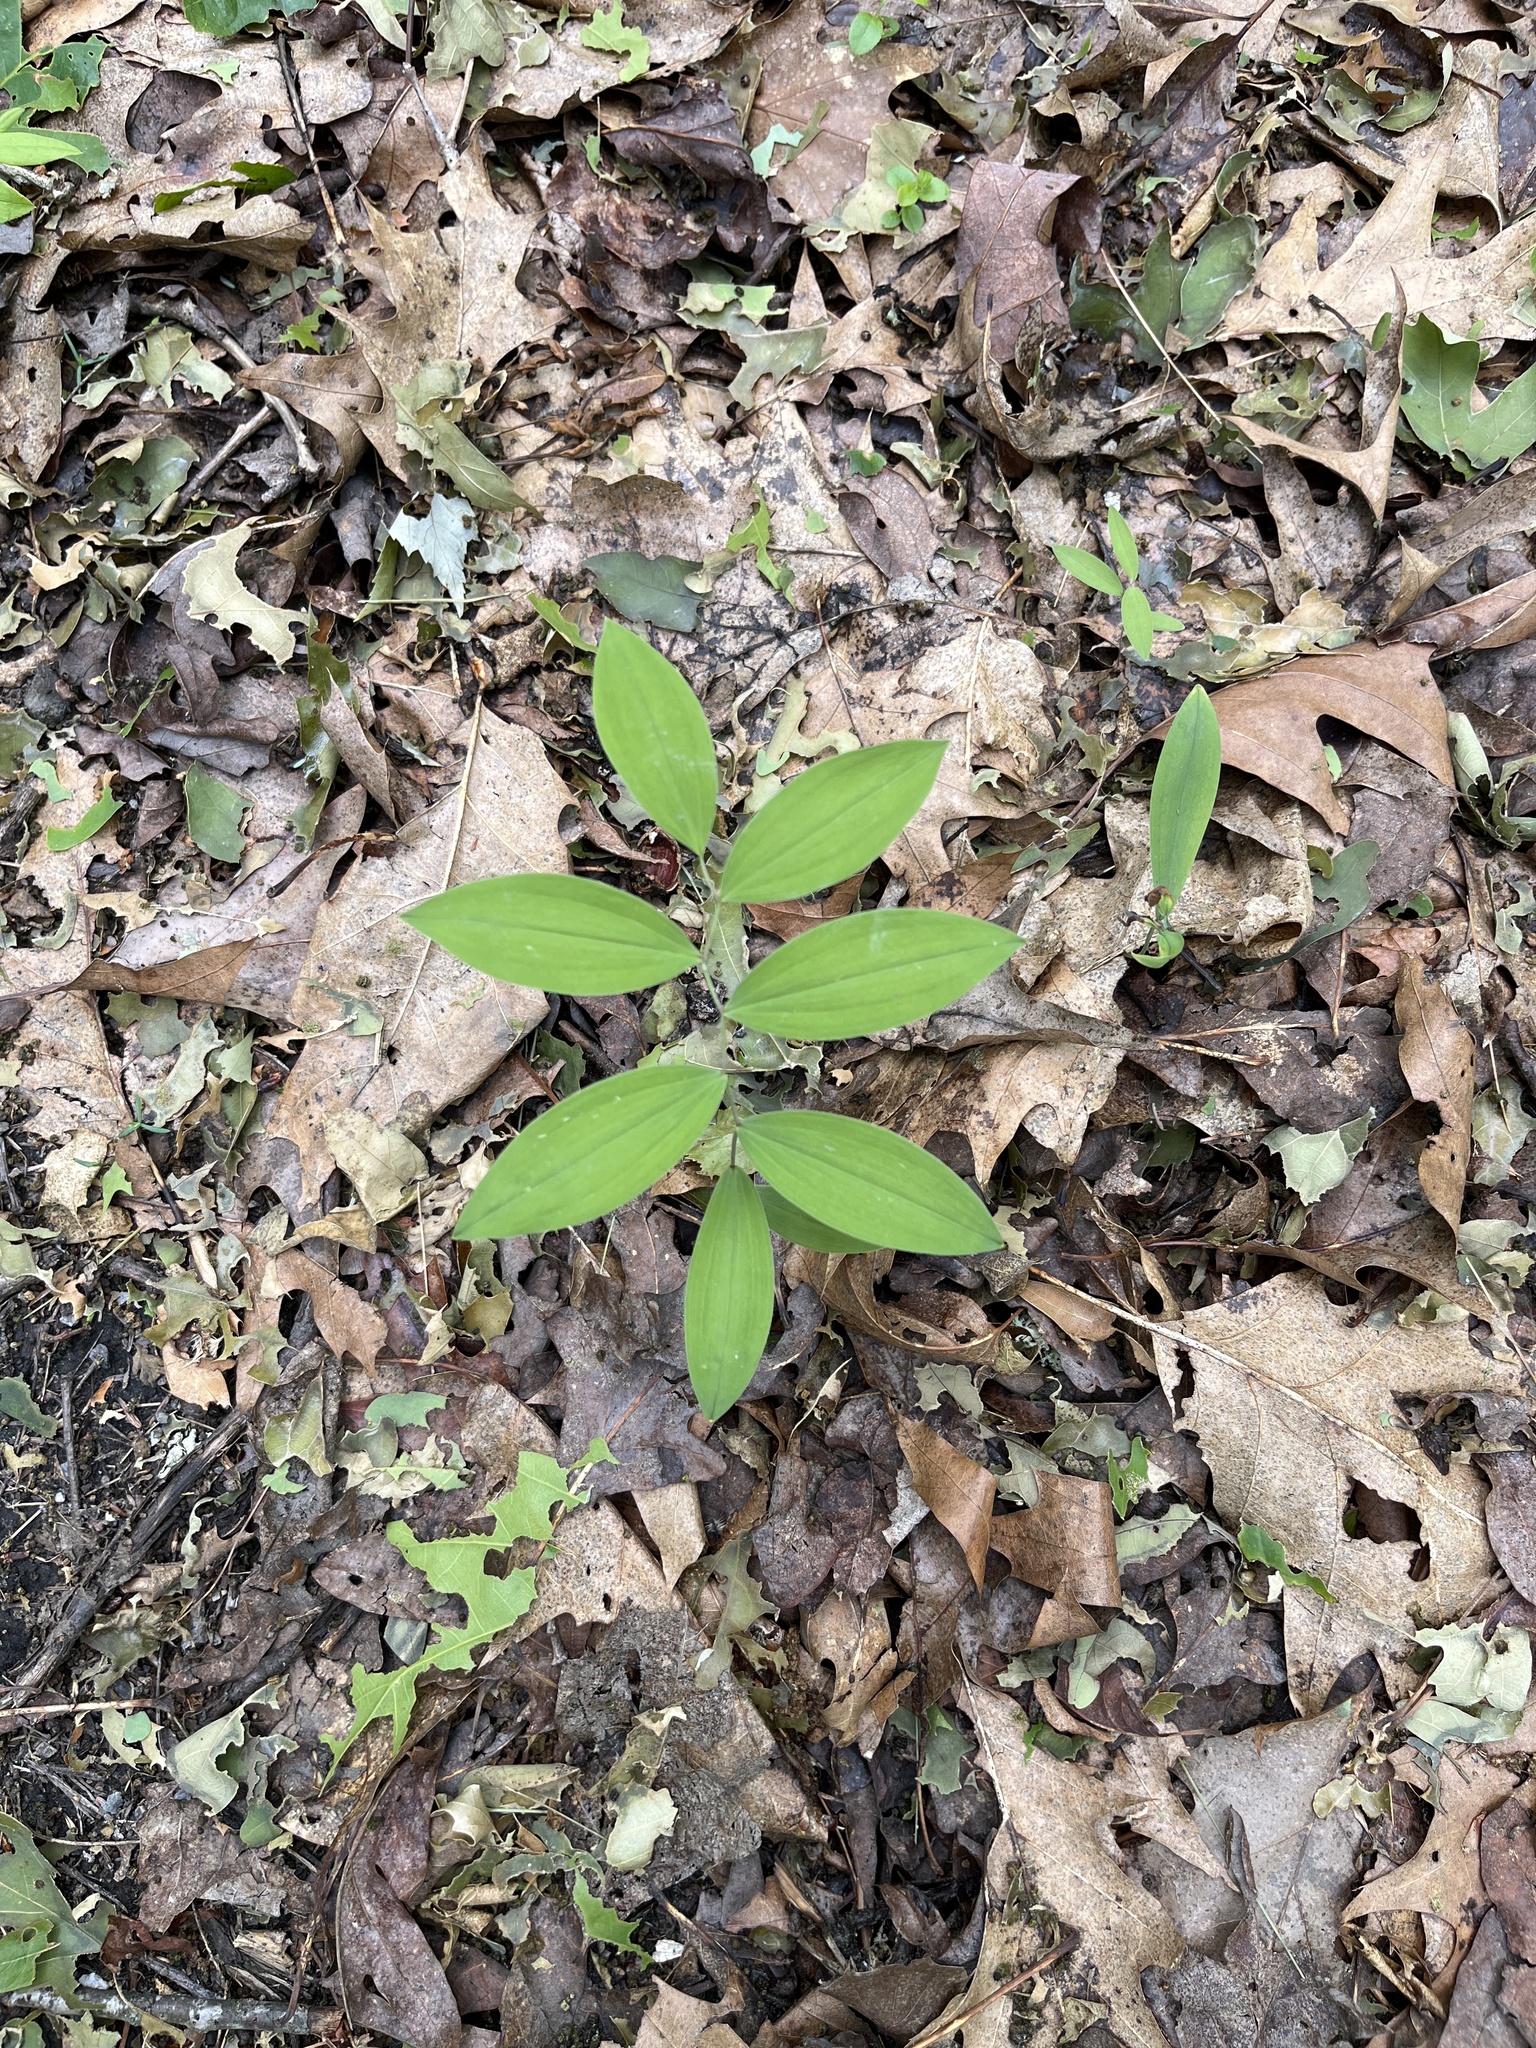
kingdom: Plantae
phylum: Tracheophyta
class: Liliopsida
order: Liliales
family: Colchicaceae
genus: Uvularia
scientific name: Uvularia sessilifolia
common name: Straw-lily
